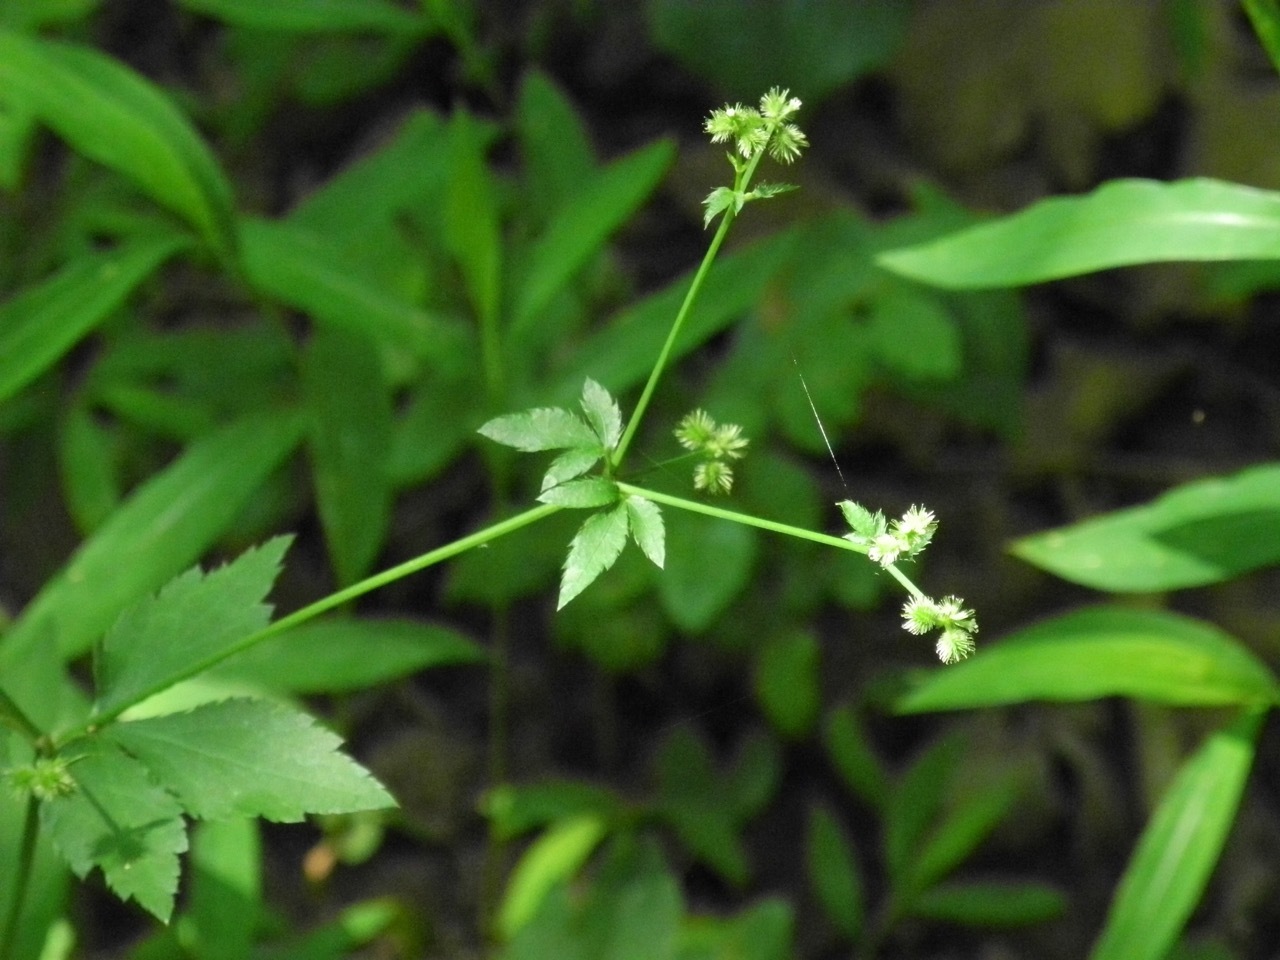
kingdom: Plantae
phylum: Tracheophyta
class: Magnoliopsida
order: Apiales
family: Apiaceae
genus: Sanicula
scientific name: Sanicula canadensis
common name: Canada sanicle
